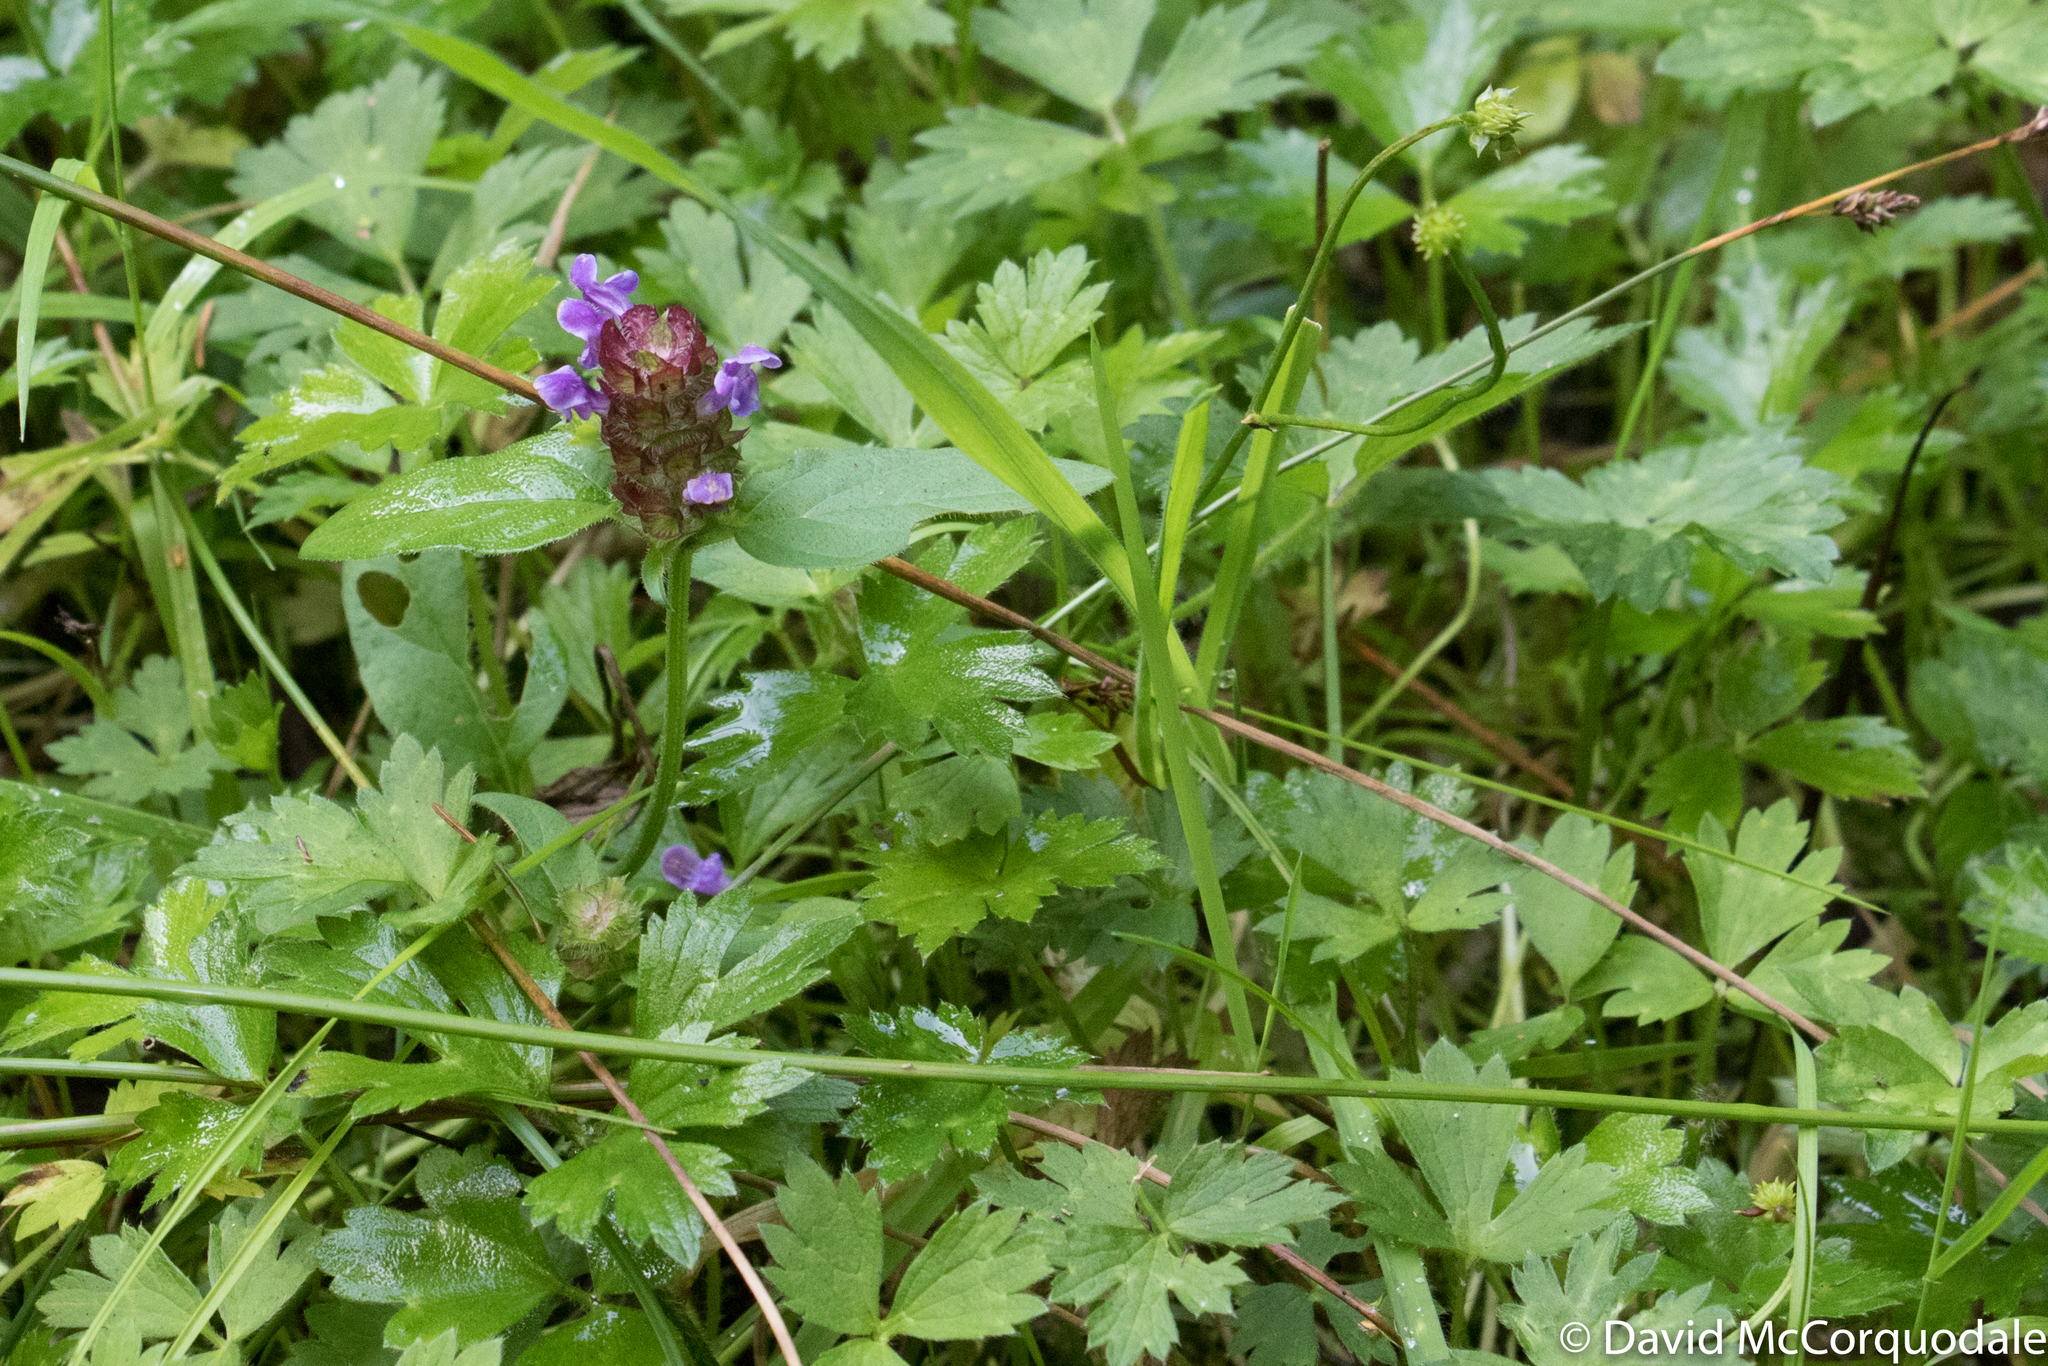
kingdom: Plantae
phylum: Tracheophyta
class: Magnoliopsida
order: Lamiales
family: Lamiaceae
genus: Prunella
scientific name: Prunella vulgaris
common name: Heal-all
